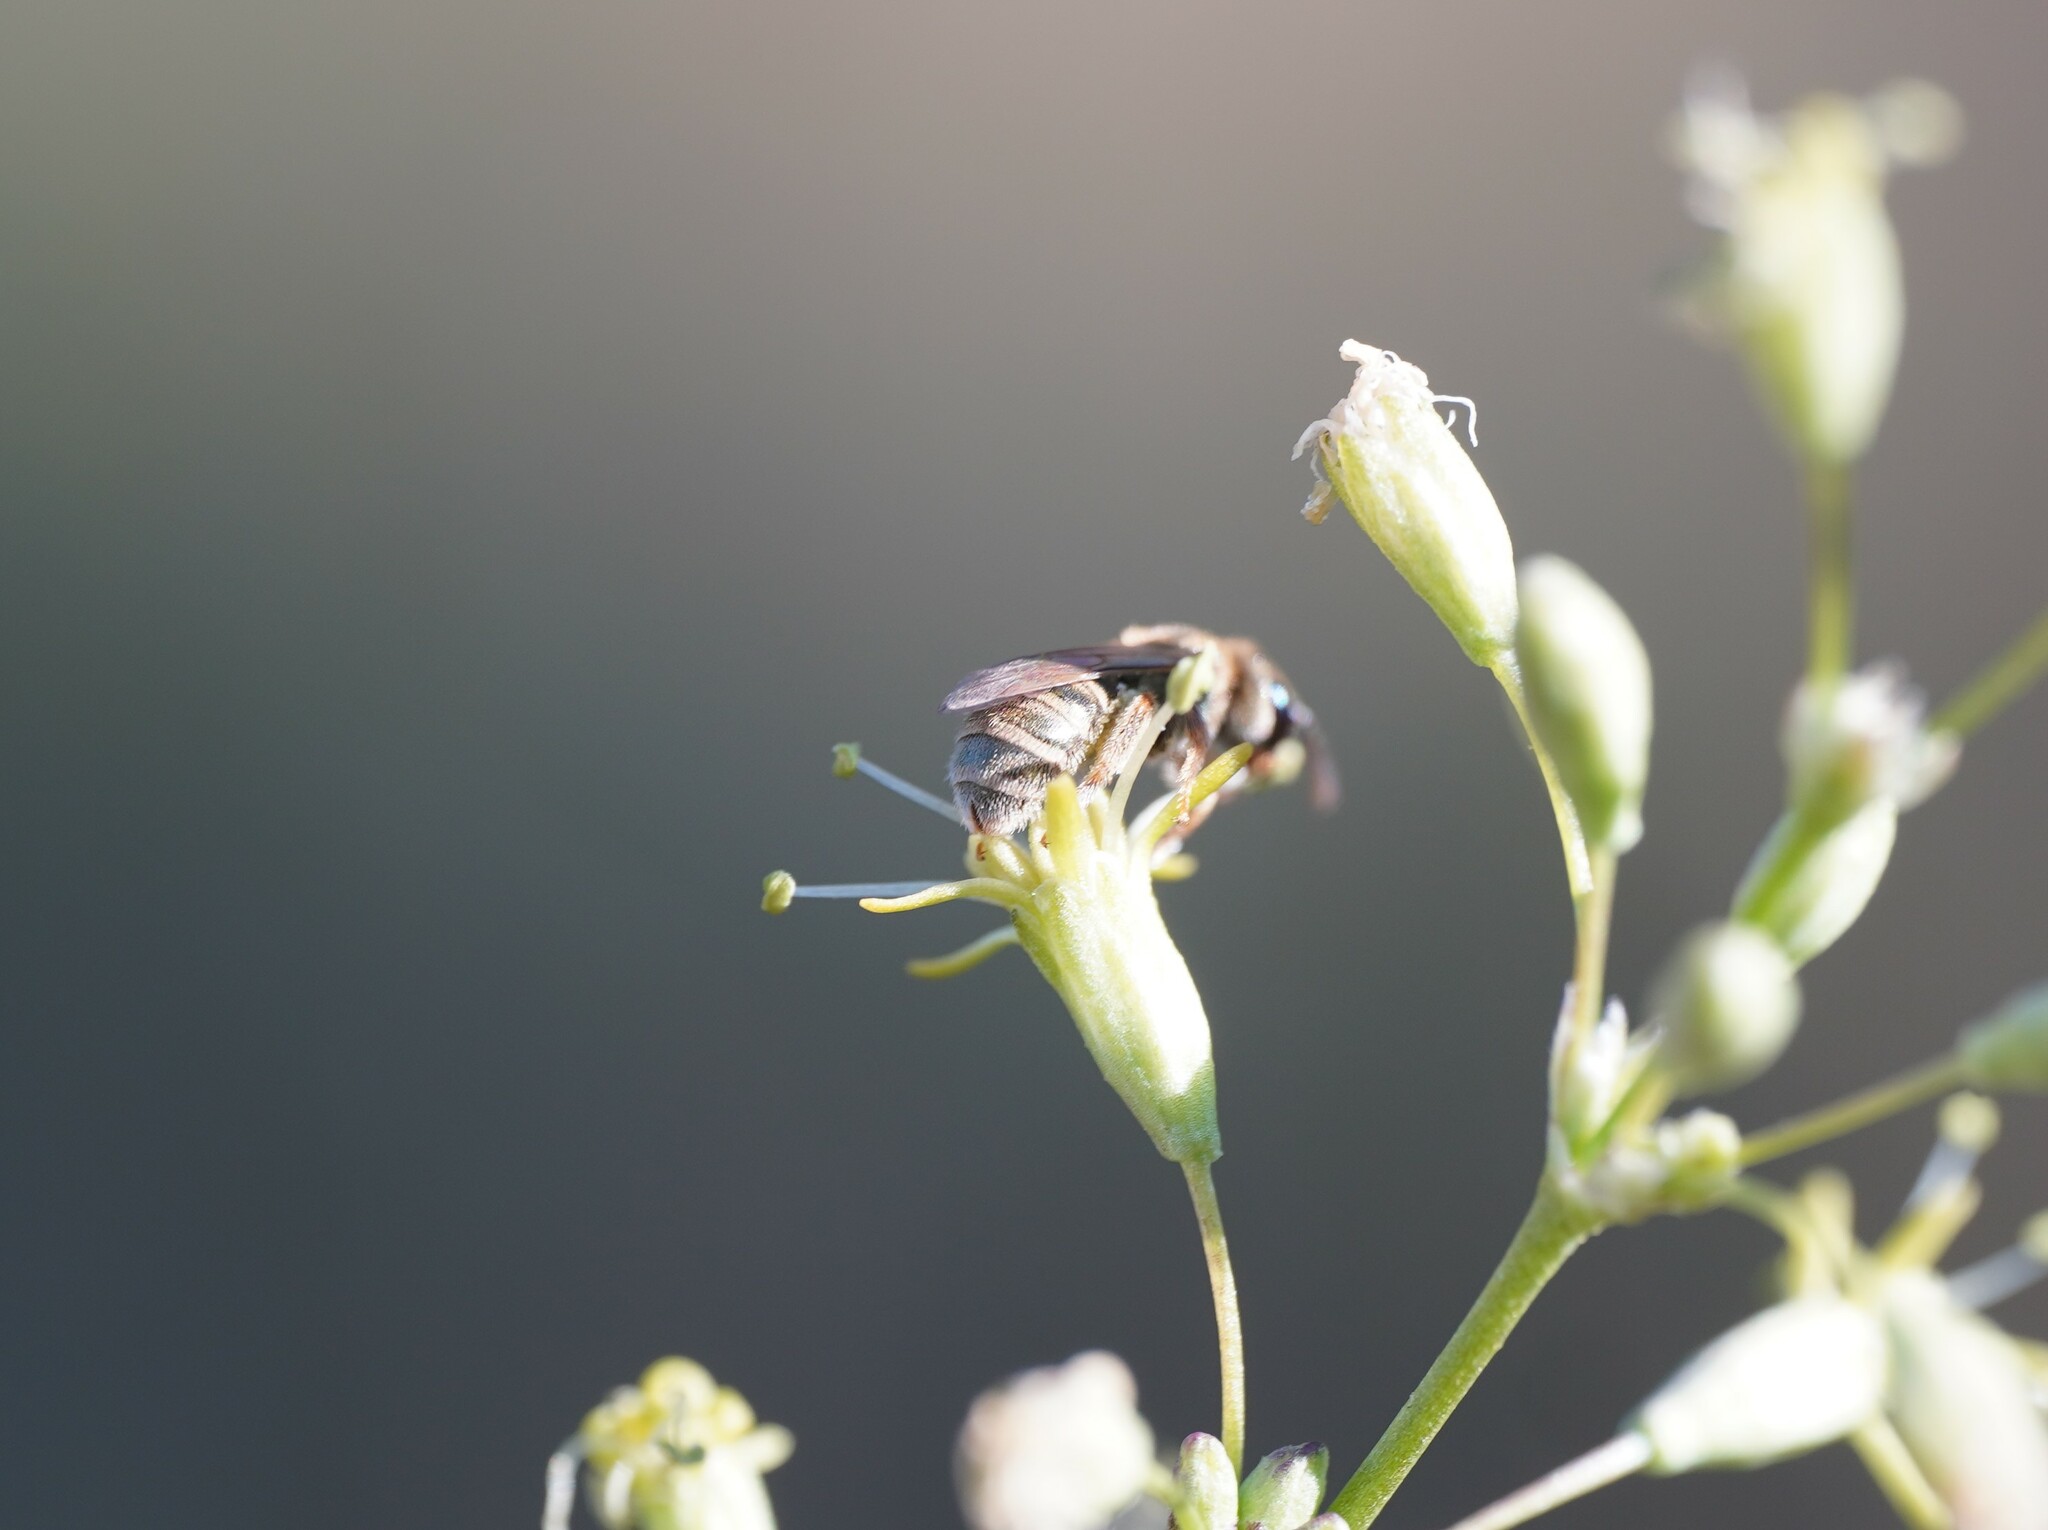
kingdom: Animalia
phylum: Arthropoda
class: Insecta
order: Hymenoptera
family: Halictidae
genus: Halictus
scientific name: Halictus semitectus
